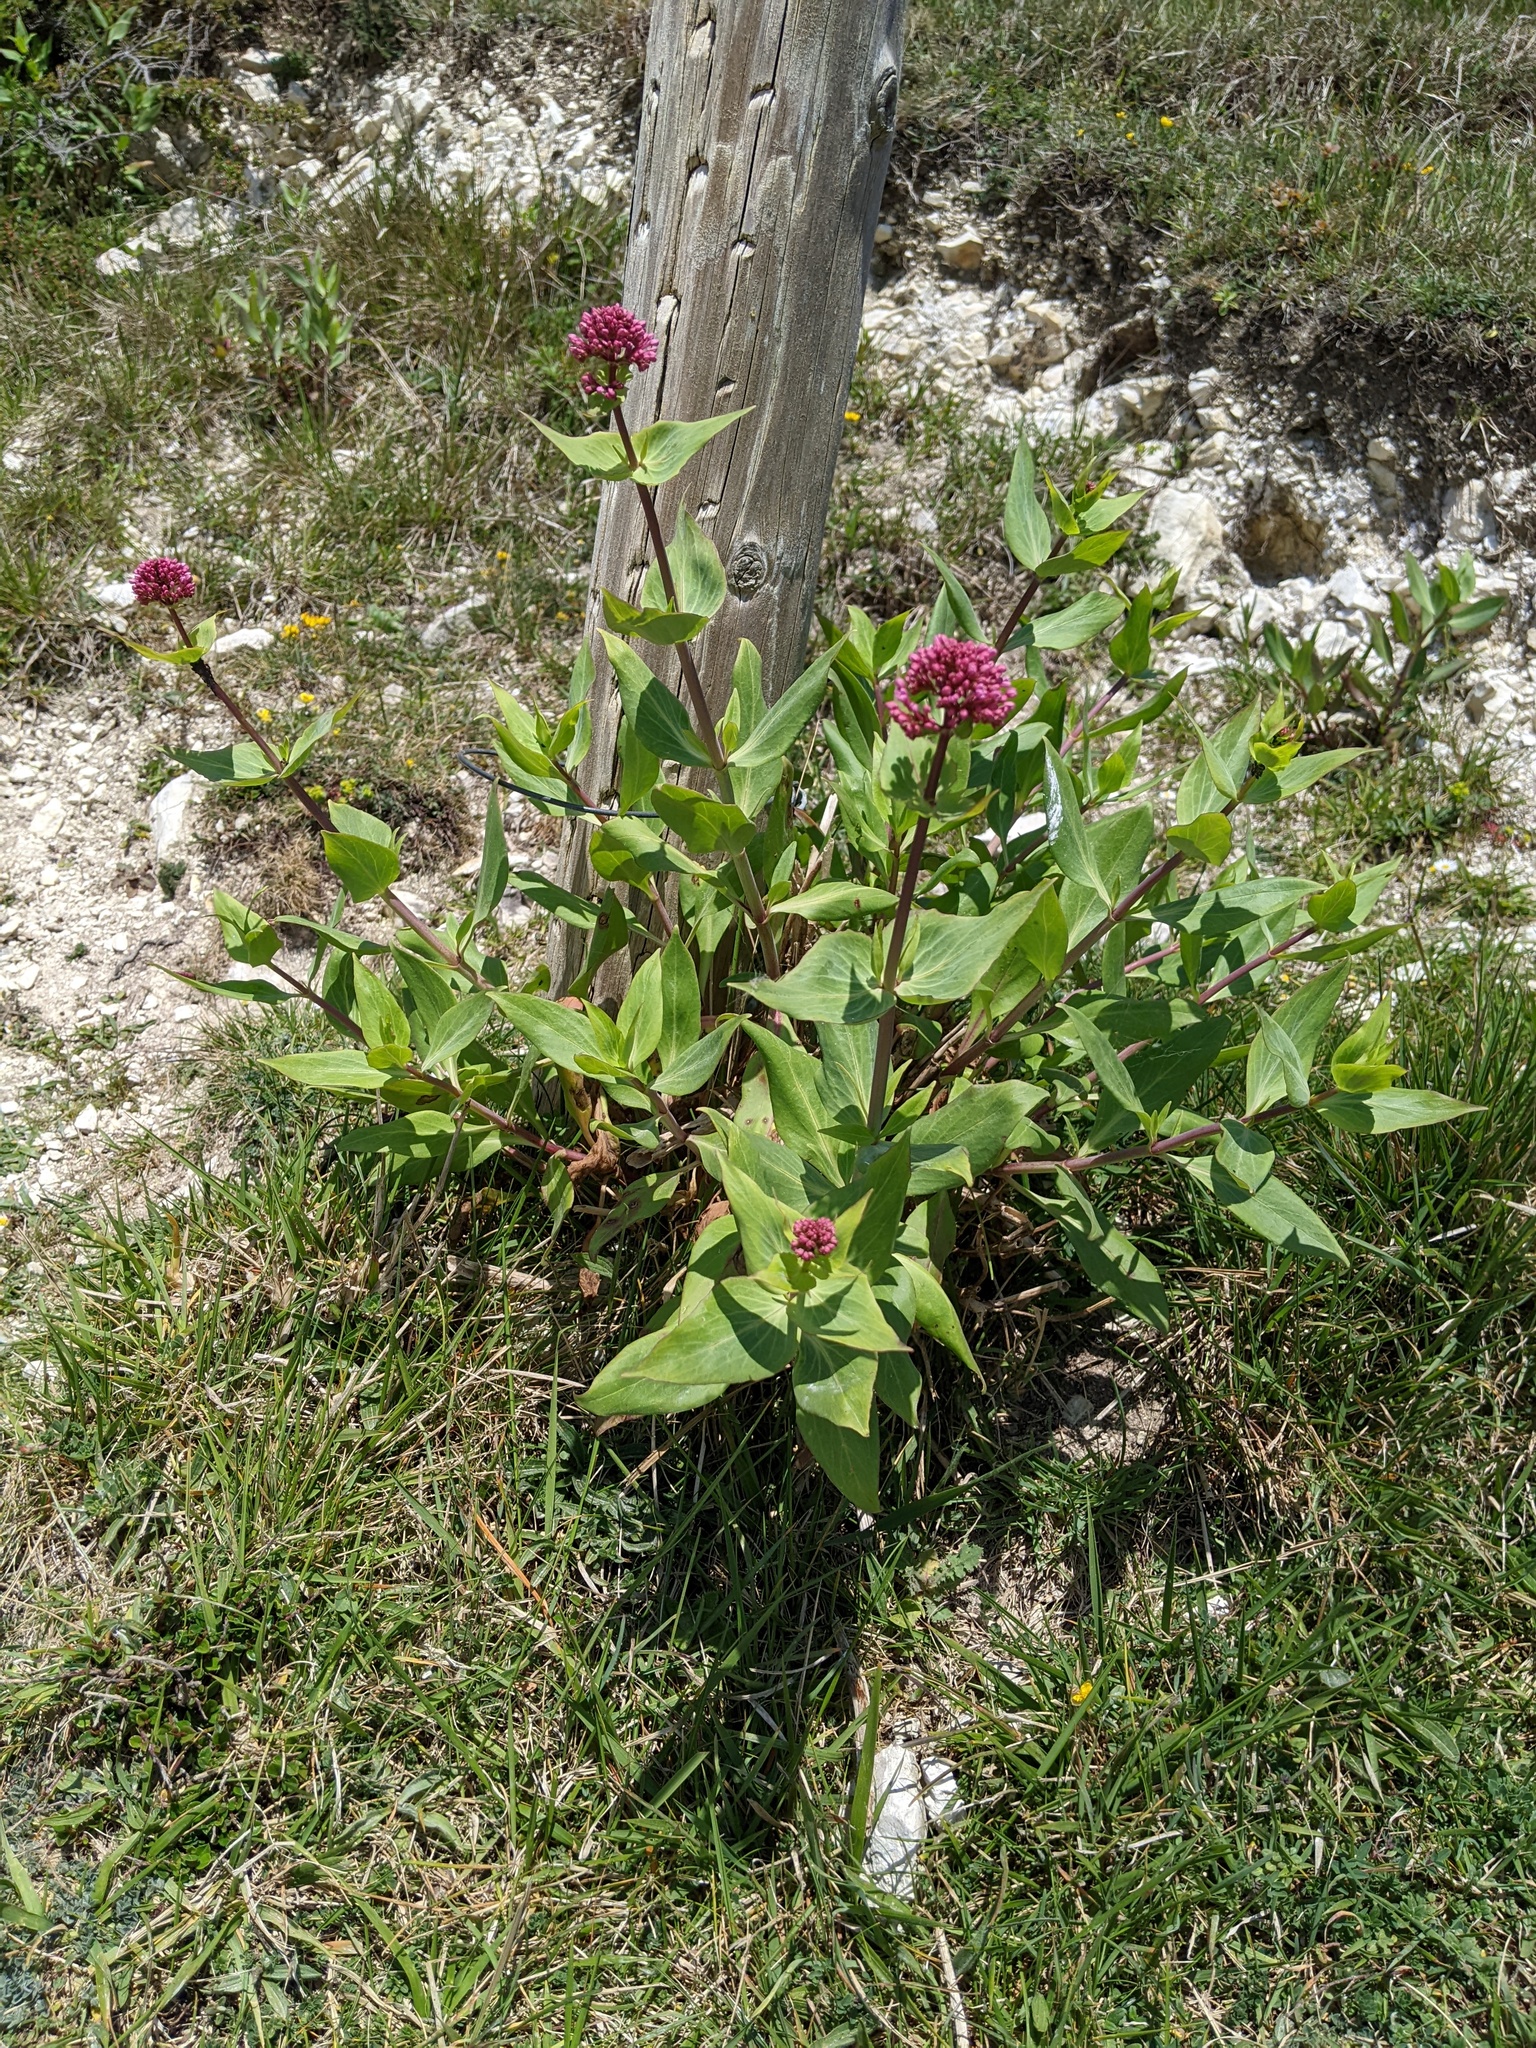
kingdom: Plantae
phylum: Tracheophyta
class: Magnoliopsida
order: Dipsacales
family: Caprifoliaceae
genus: Centranthus
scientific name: Centranthus ruber
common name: Red valerian
